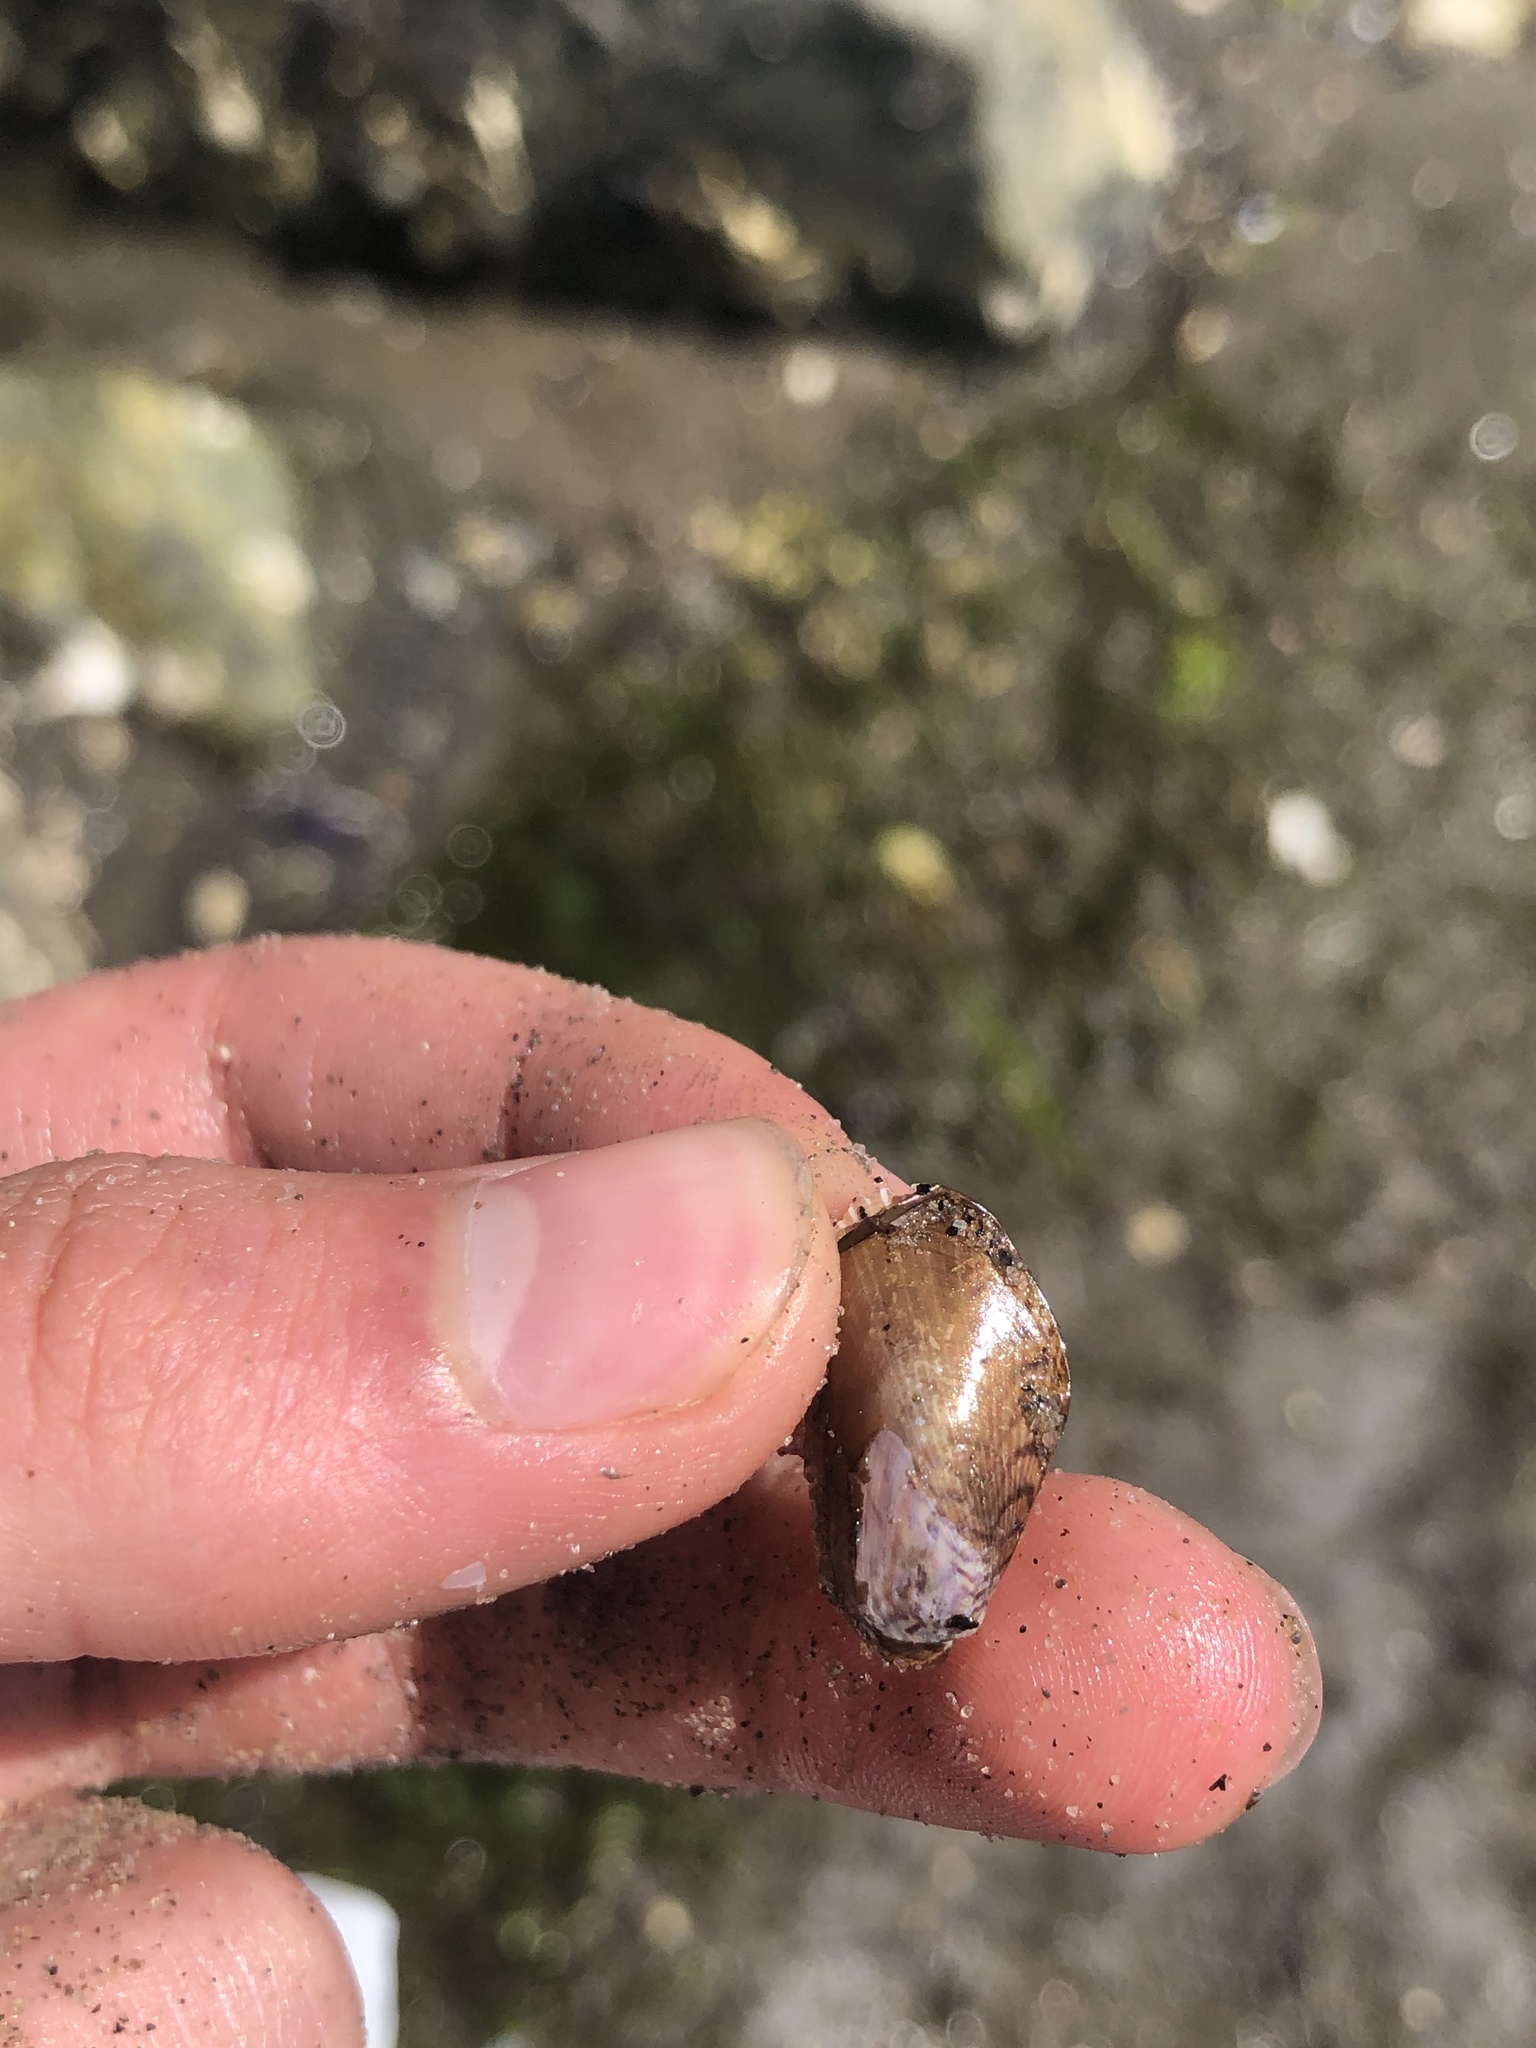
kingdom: Animalia
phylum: Mollusca
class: Bivalvia
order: Mytilida
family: Mytilidae
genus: Arcuatula
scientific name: Arcuatula senhousia
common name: Asian mussel
